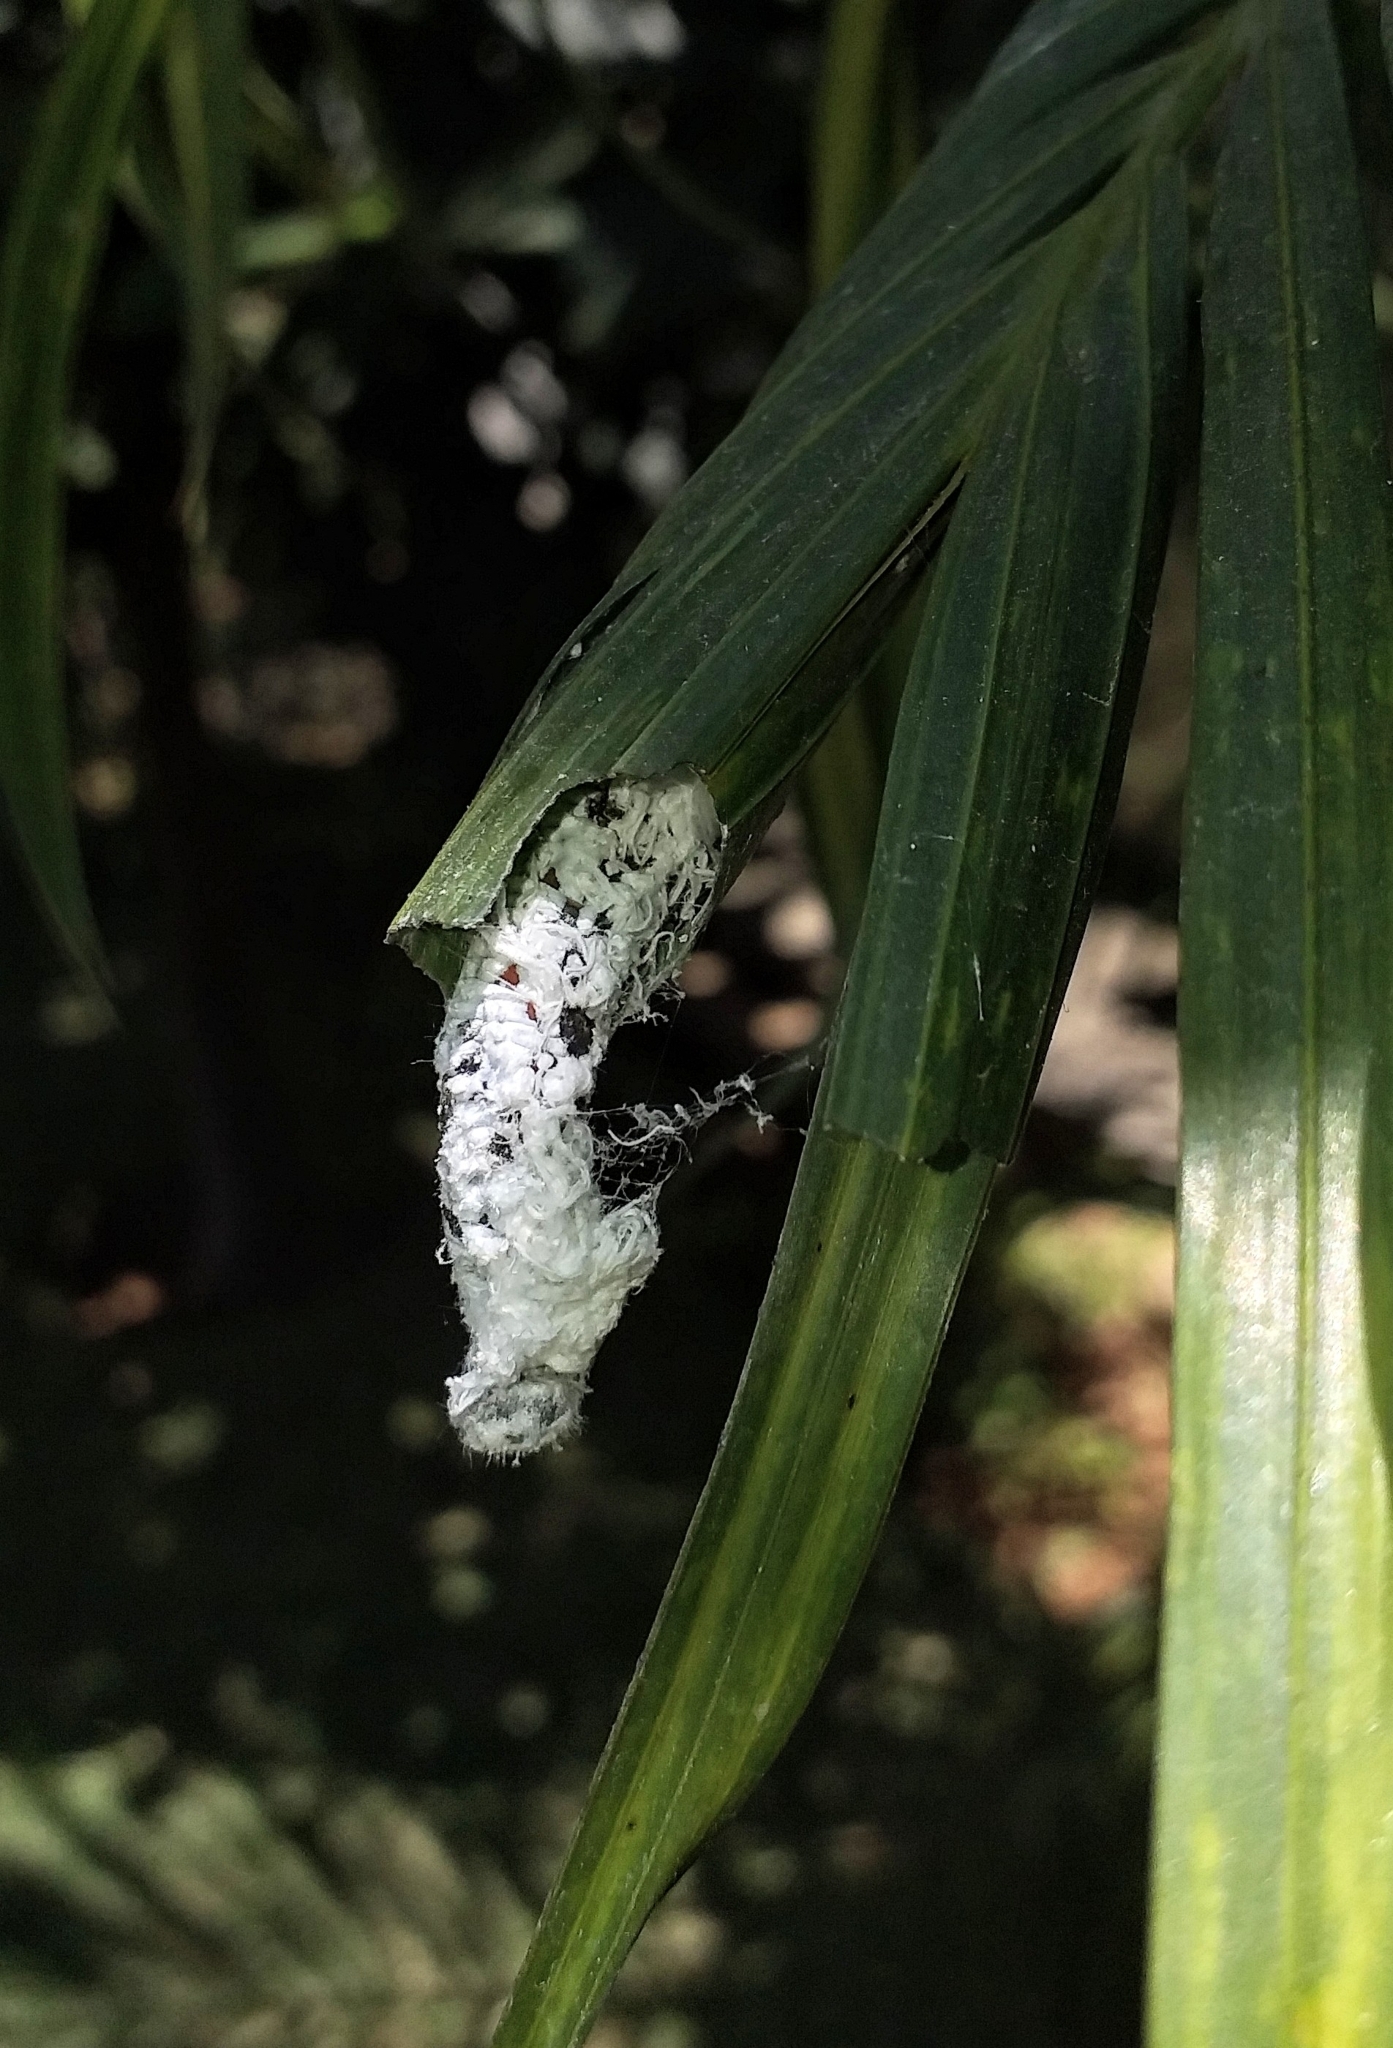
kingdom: Animalia
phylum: Arthropoda
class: Insecta
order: Lepidoptera
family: Hesperiidae
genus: Gangara
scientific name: Gangara thyrsis
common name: Giant redeye
